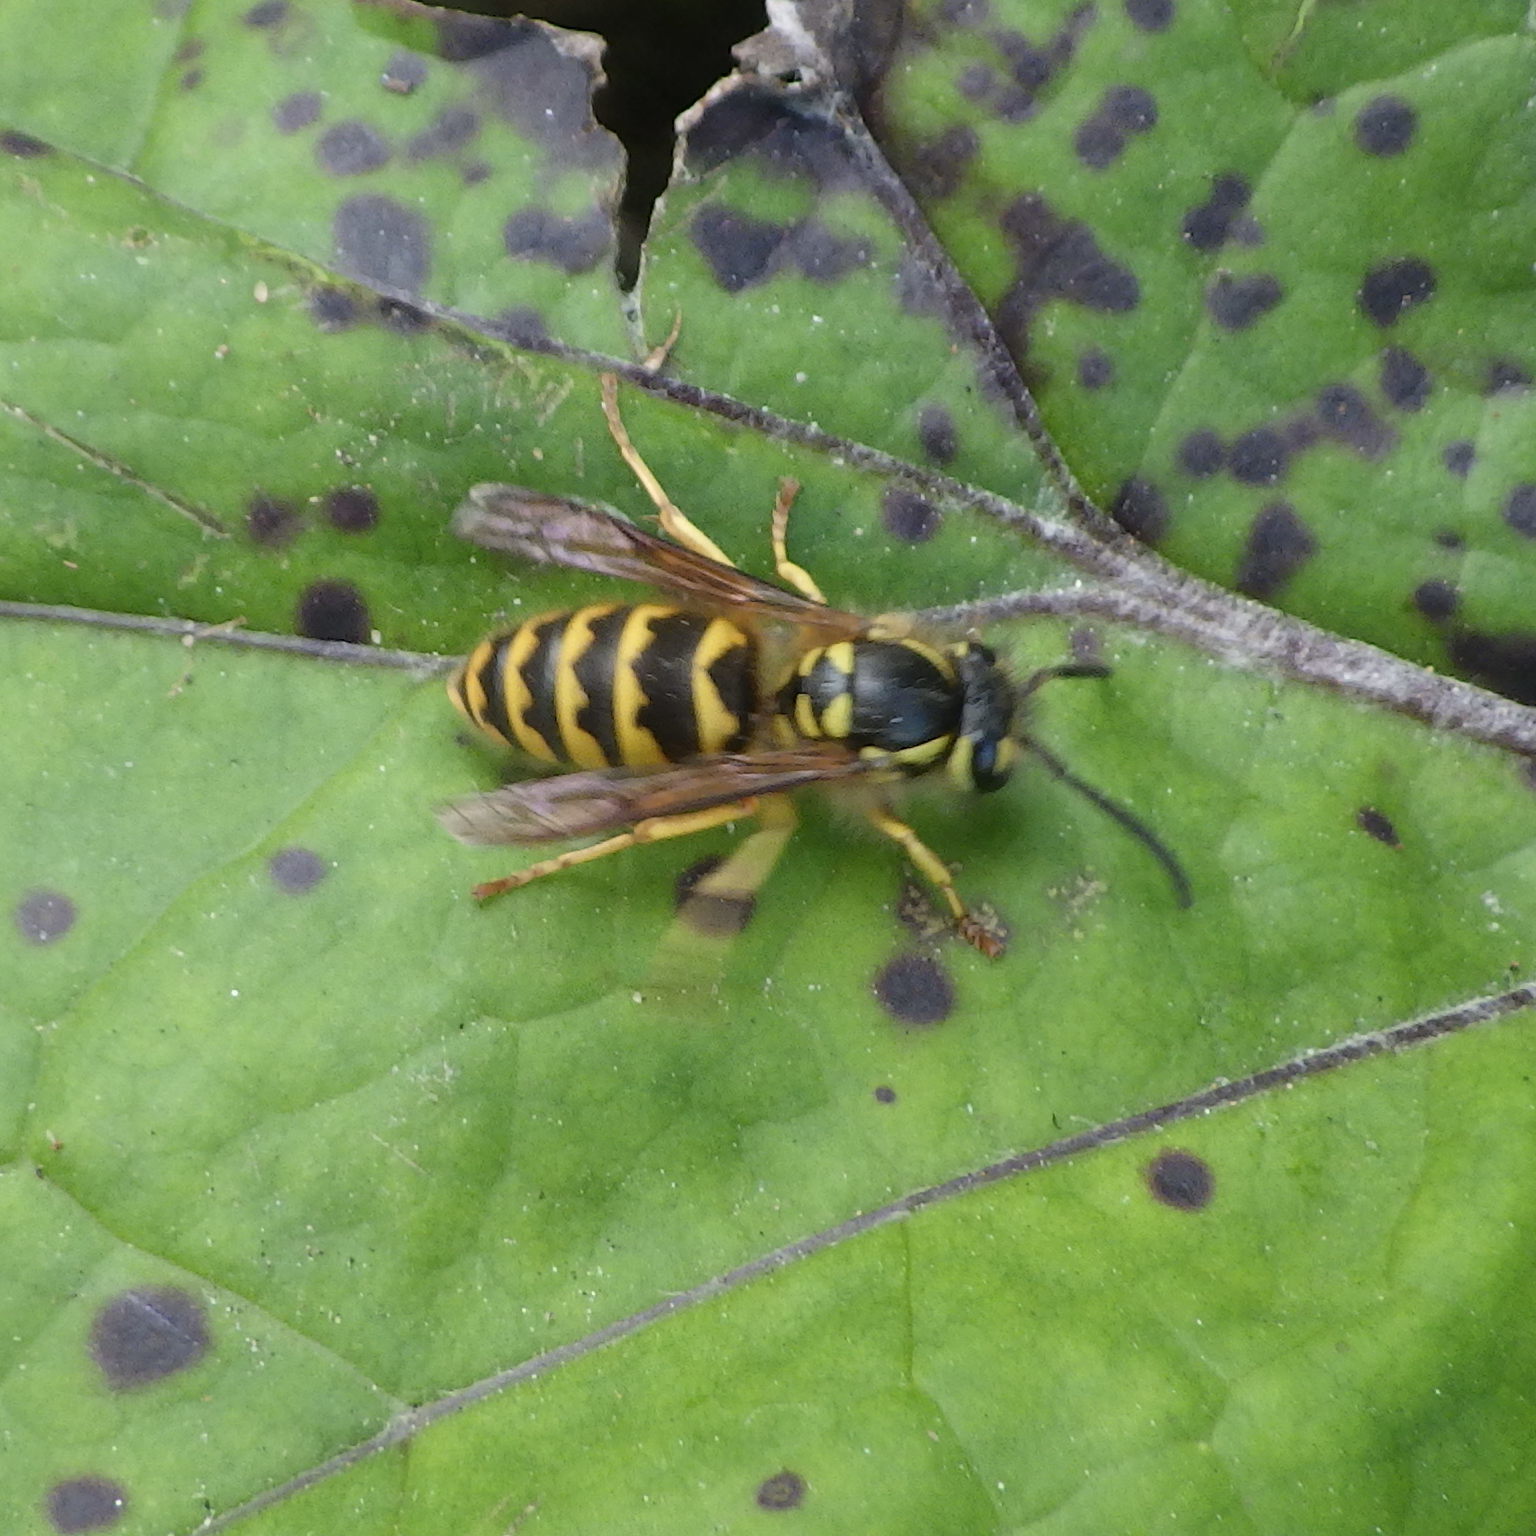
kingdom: Animalia
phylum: Arthropoda
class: Insecta
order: Hymenoptera
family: Vespidae
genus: Vespula
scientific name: Vespula flavopilosa
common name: Downy yellowjacket
